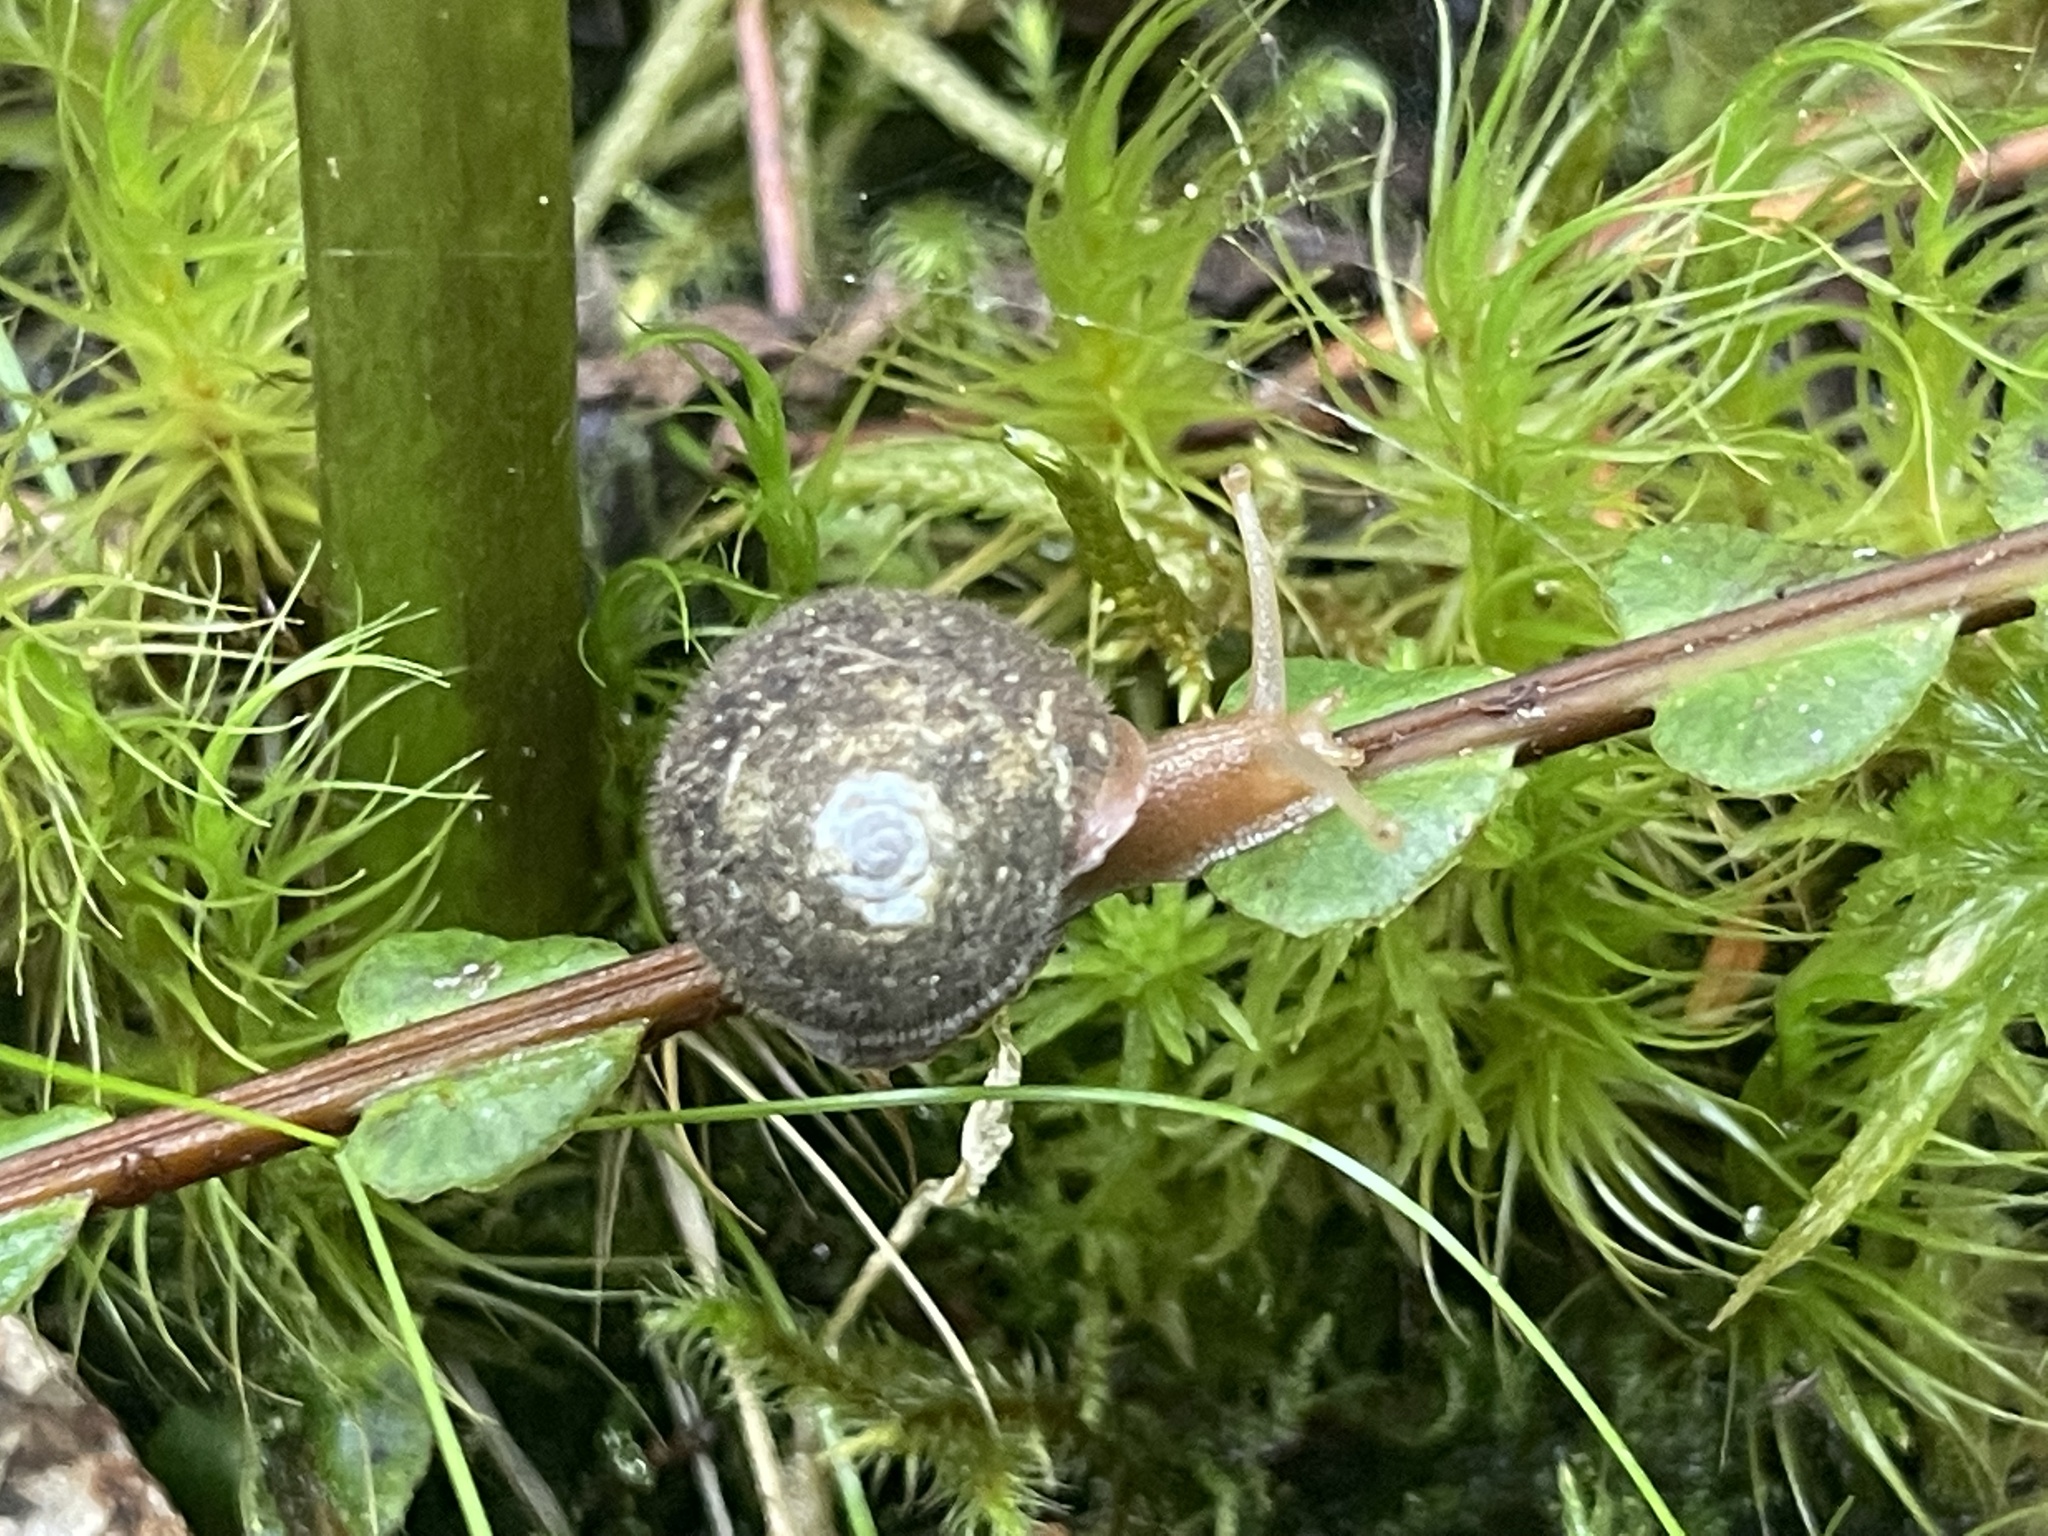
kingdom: Animalia
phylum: Mollusca
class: Gastropoda
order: Stylommatophora
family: Polygyridae
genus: Vespericola
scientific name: Vespericola columbianus
